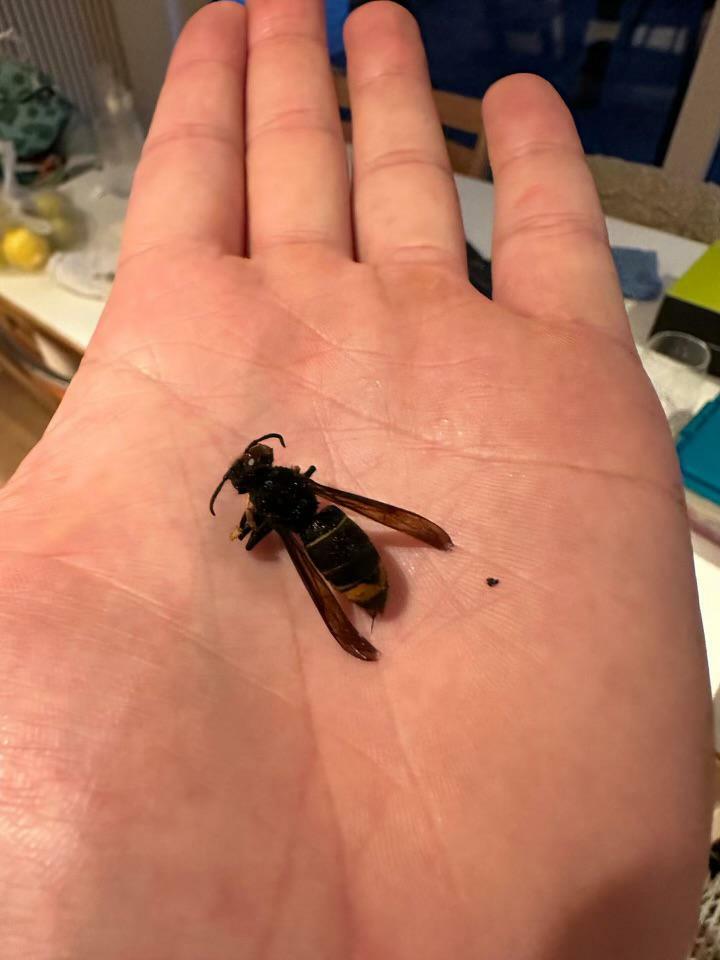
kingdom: Animalia
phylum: Arthropoda
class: Insecta
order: Hymenoptera
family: Vespidae
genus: Vespa
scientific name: Vespa velutina
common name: Asian hornet
